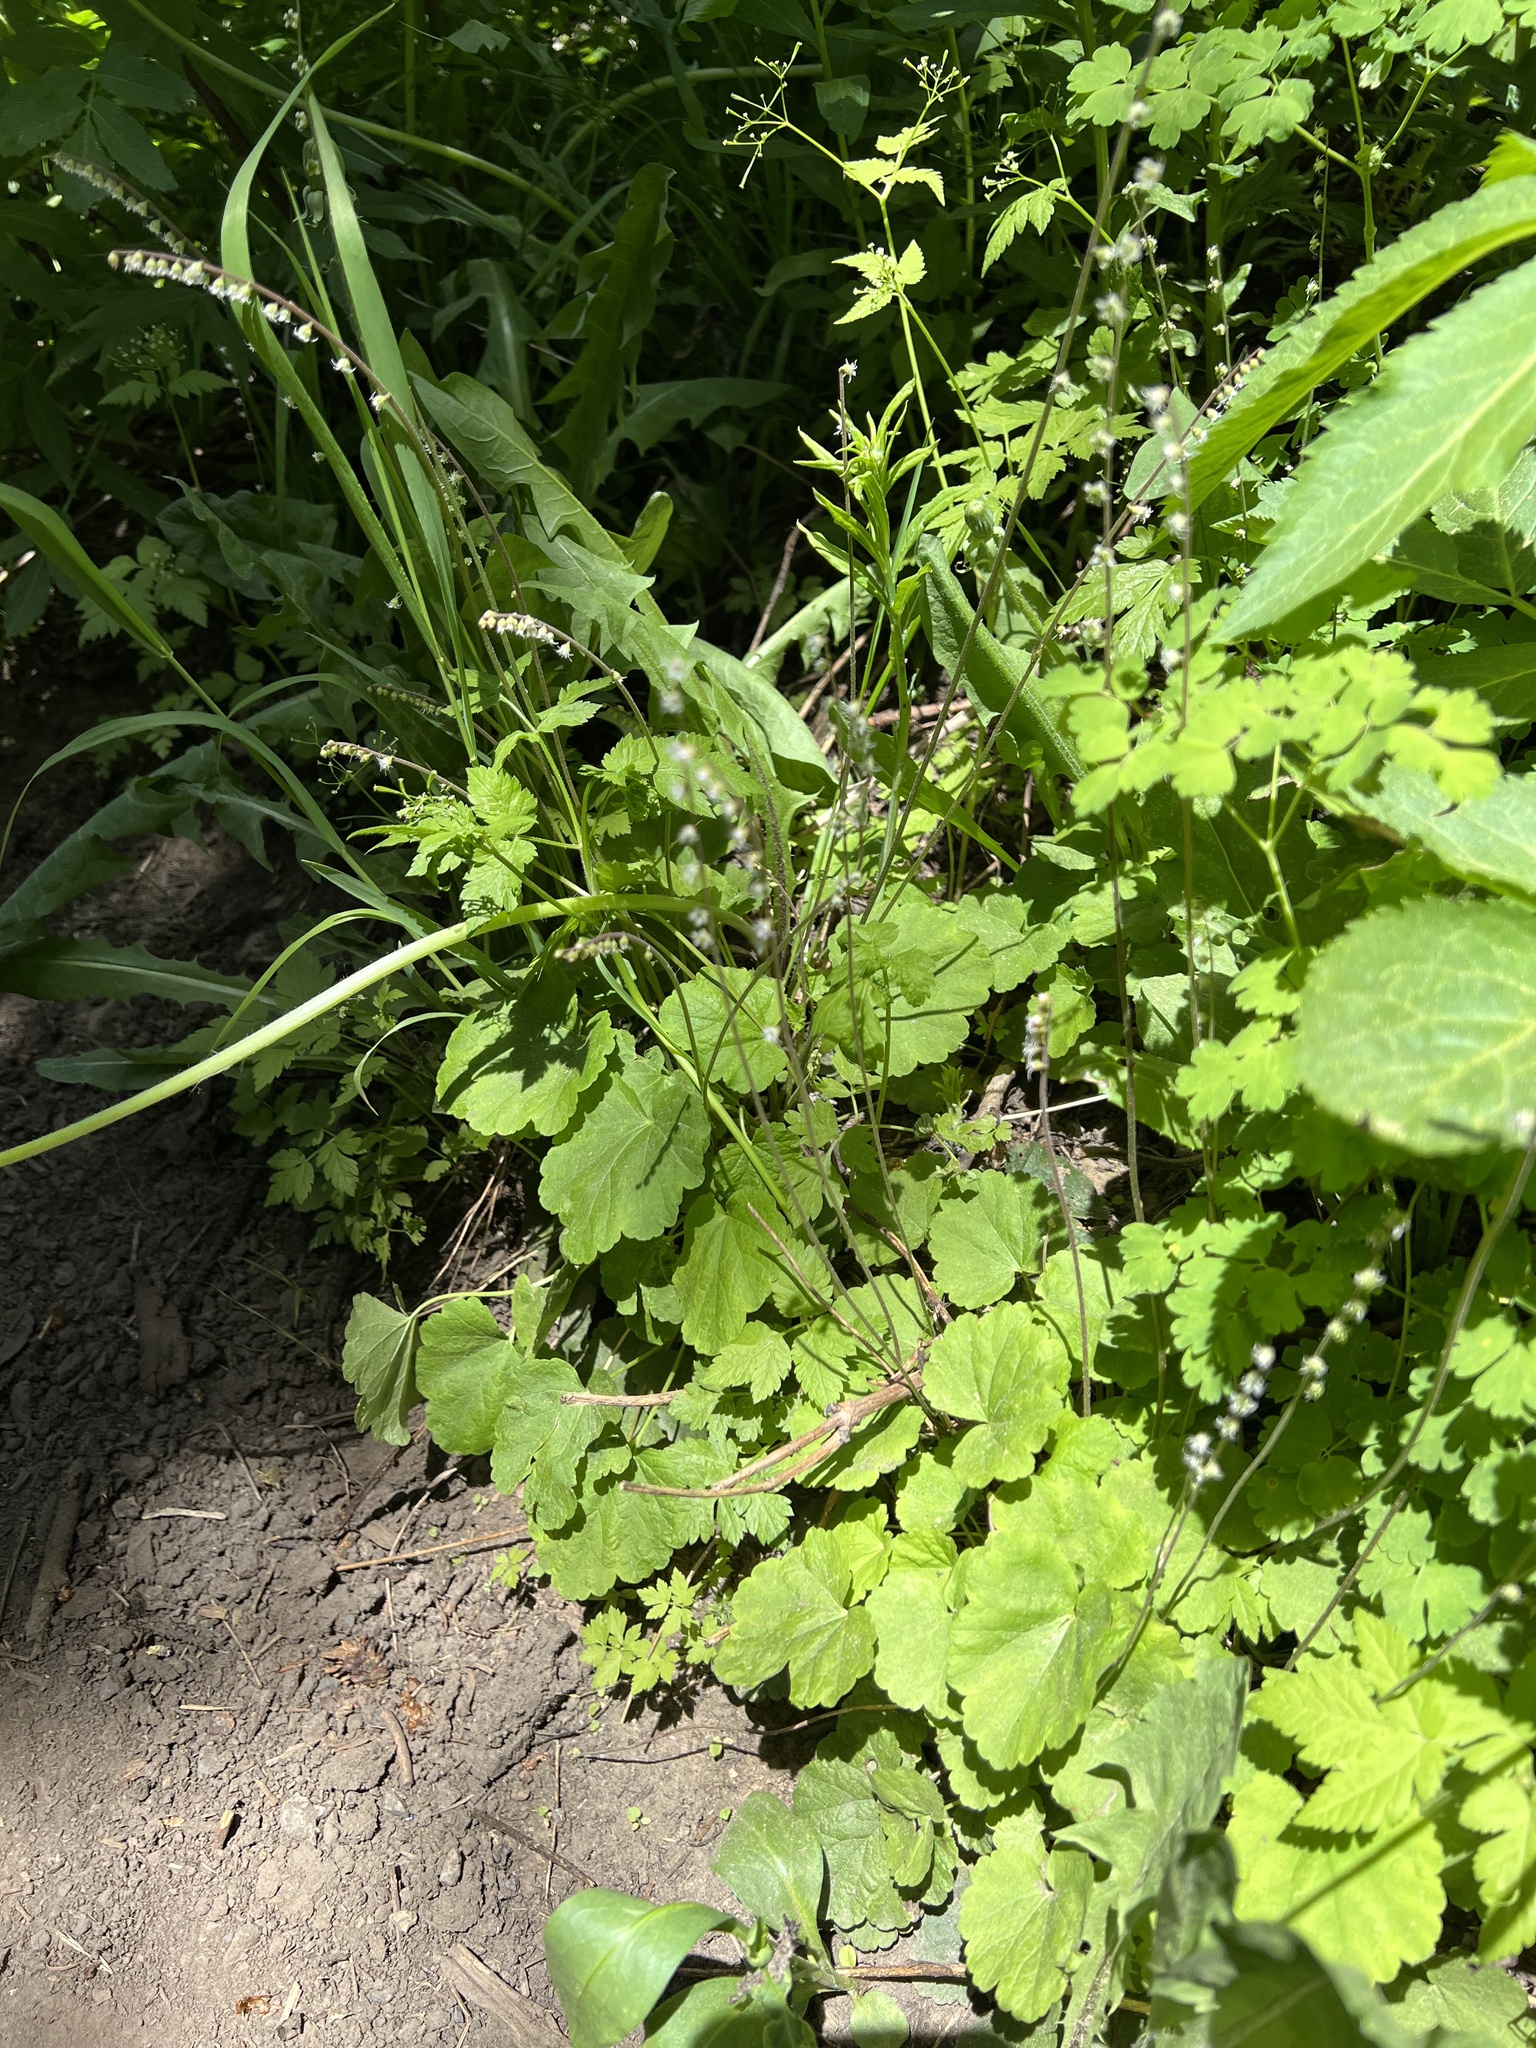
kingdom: Plantae
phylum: Tracheophyta
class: Magnoliopsida
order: Saxifragales
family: Saxifragaceae
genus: Ozomelis
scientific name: Ozomelis stauropetala
